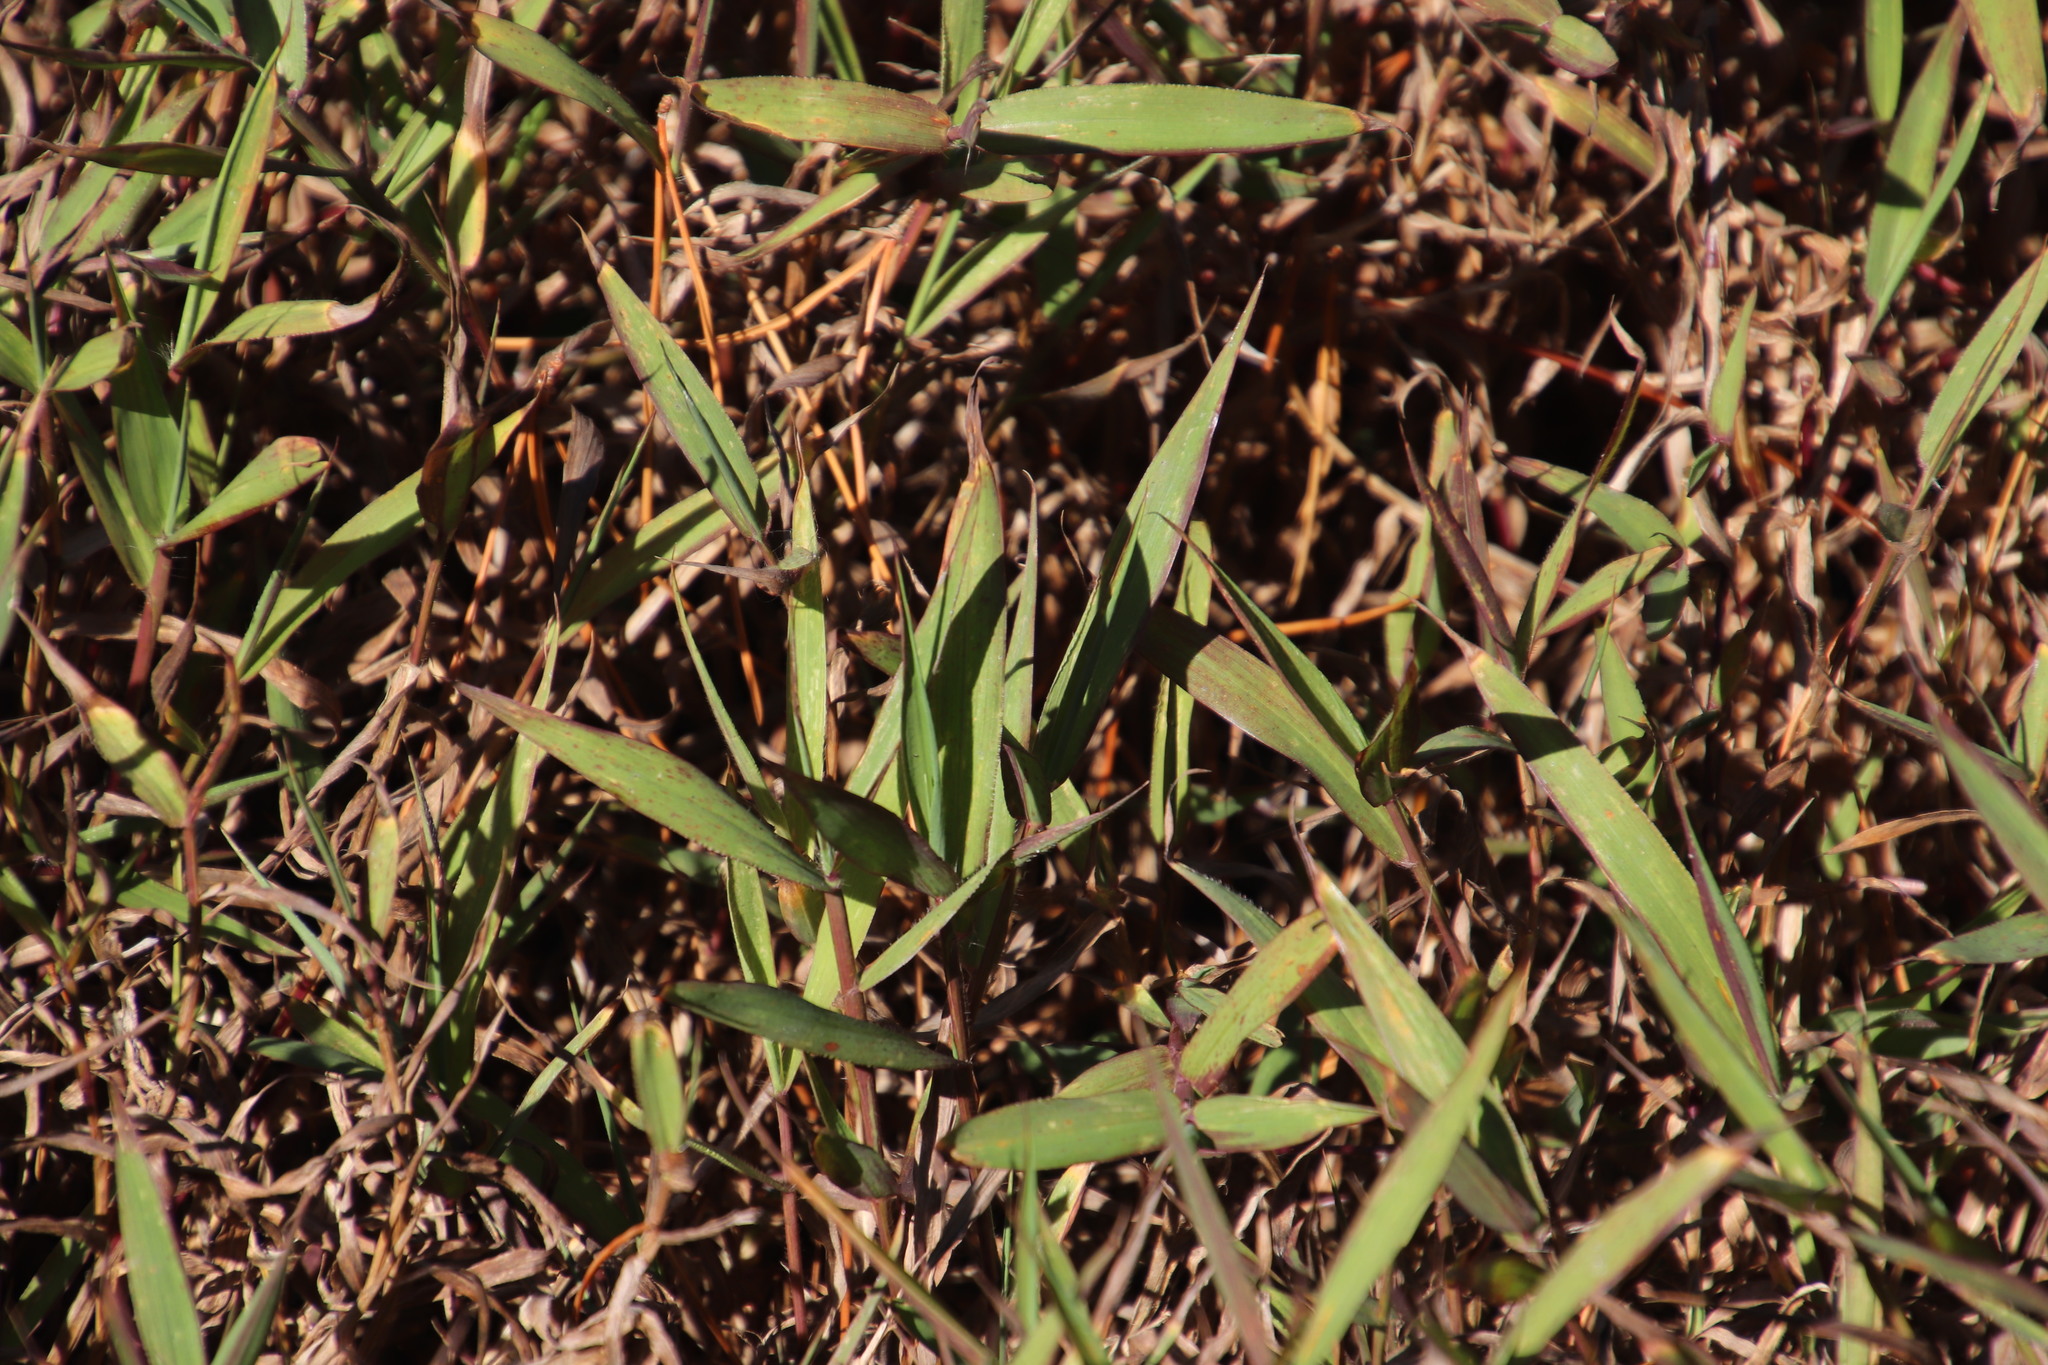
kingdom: Plantae
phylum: Tracheophyta
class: Liliopsida
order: Poales
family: Poaceae
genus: Digitaria
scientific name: Digitaria sanguinalis
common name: Hairy crabgrass
